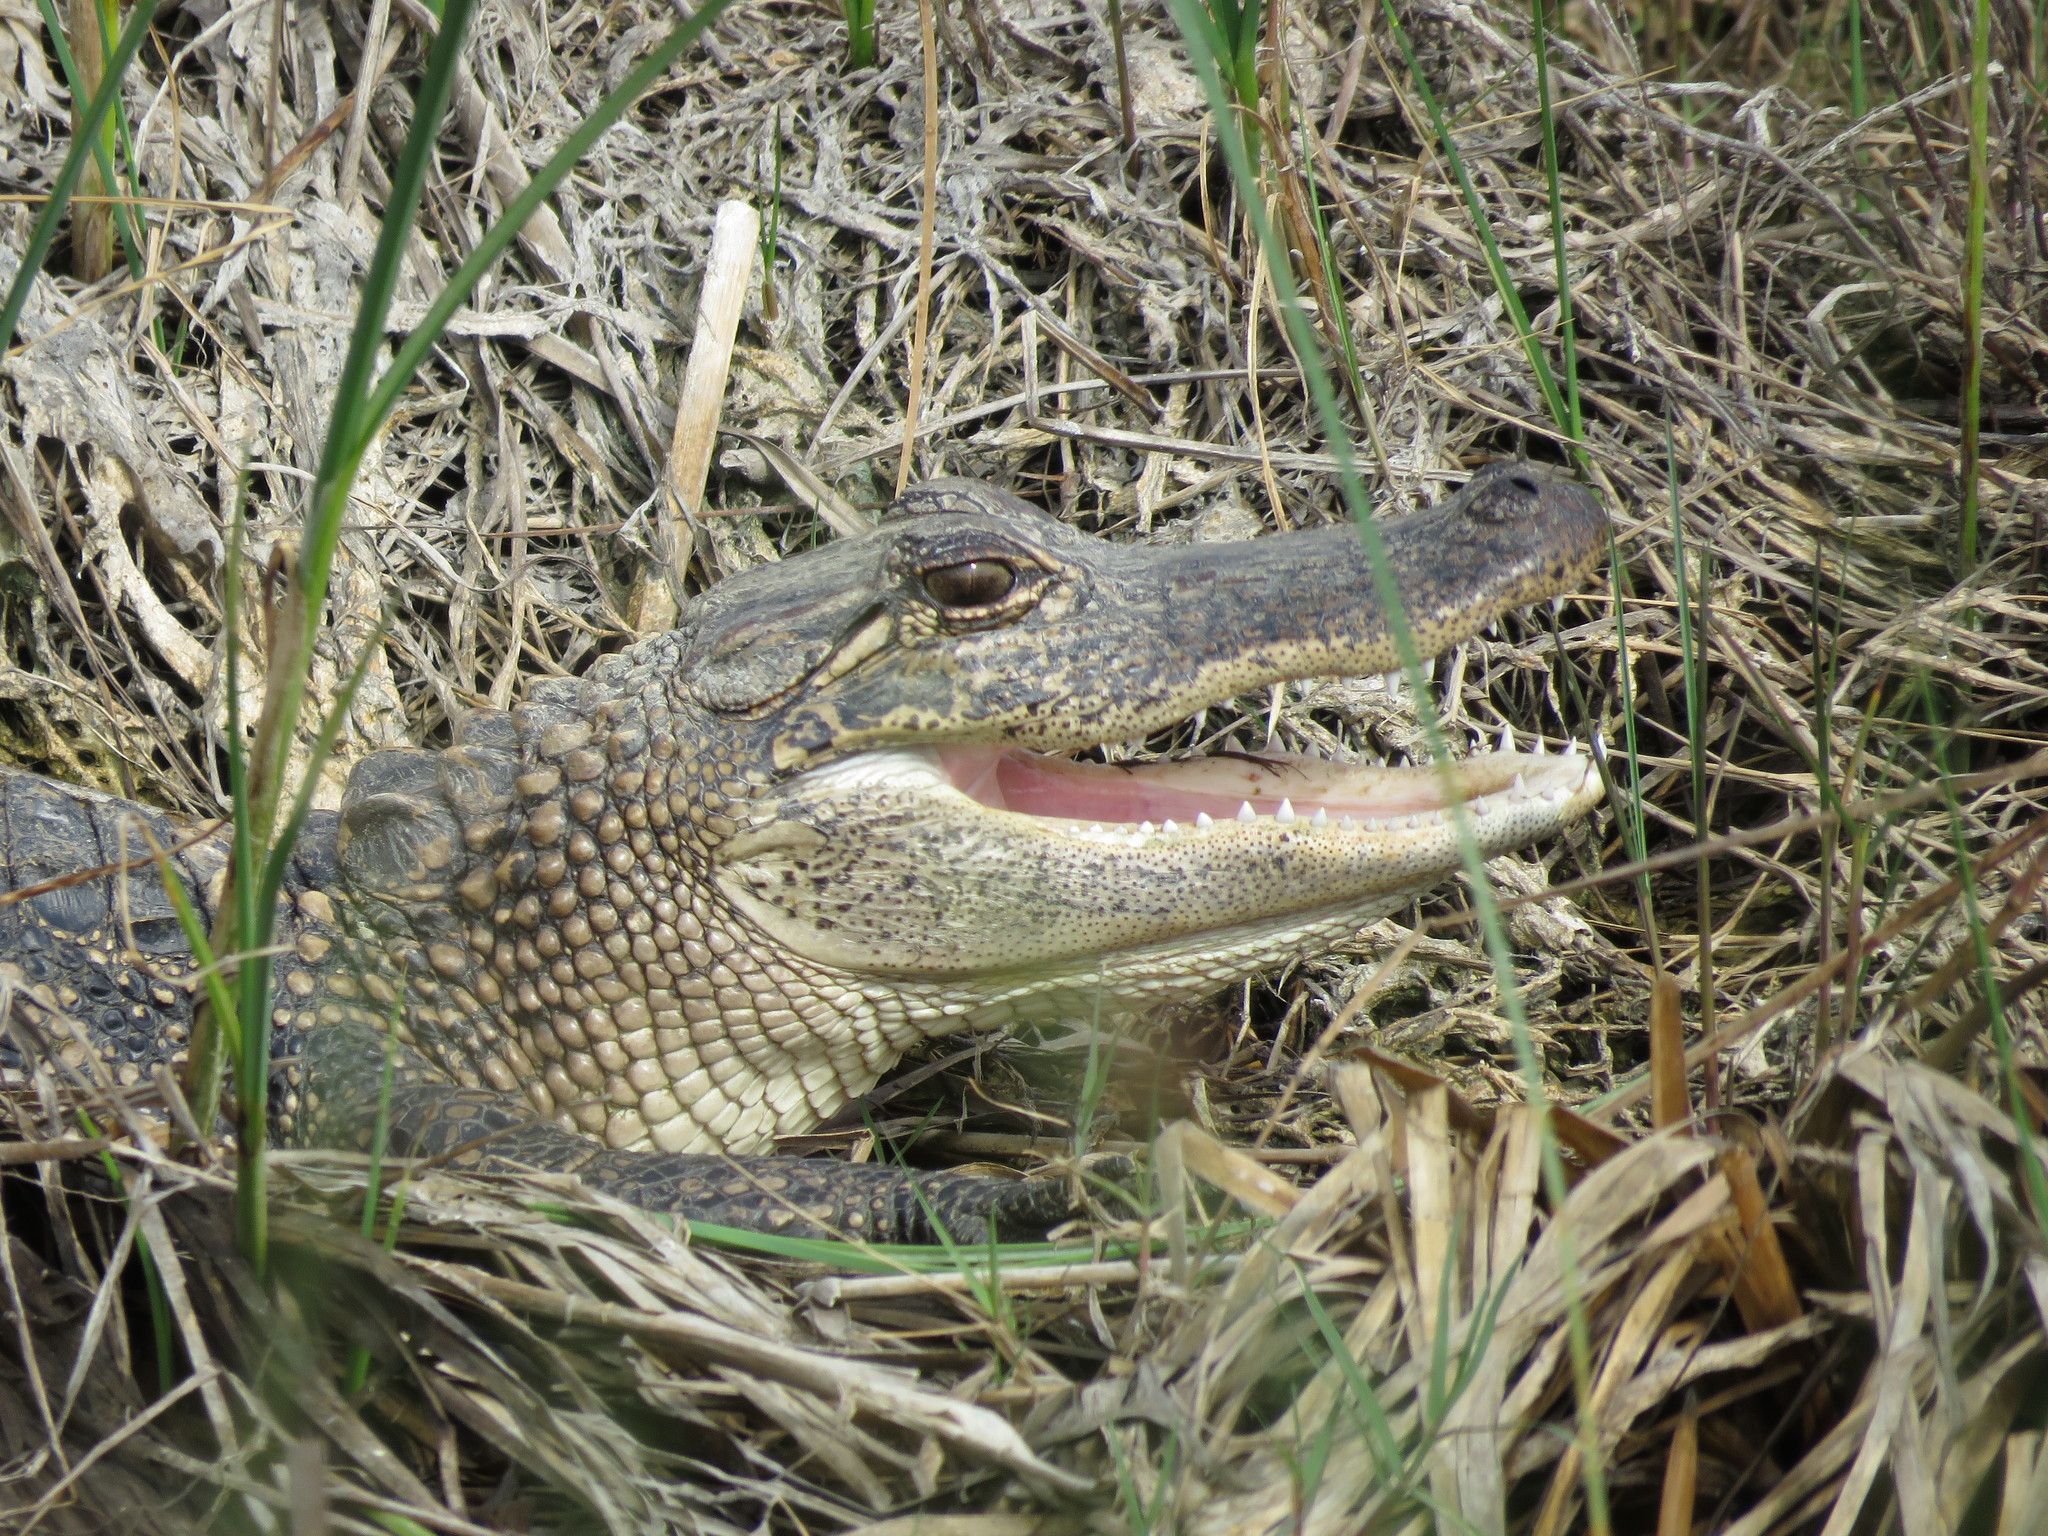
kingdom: Animalia
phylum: Chordata
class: Crocodylia
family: Alligatoridae
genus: Alligator
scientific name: Alligator mississippiensis
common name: American alligator
